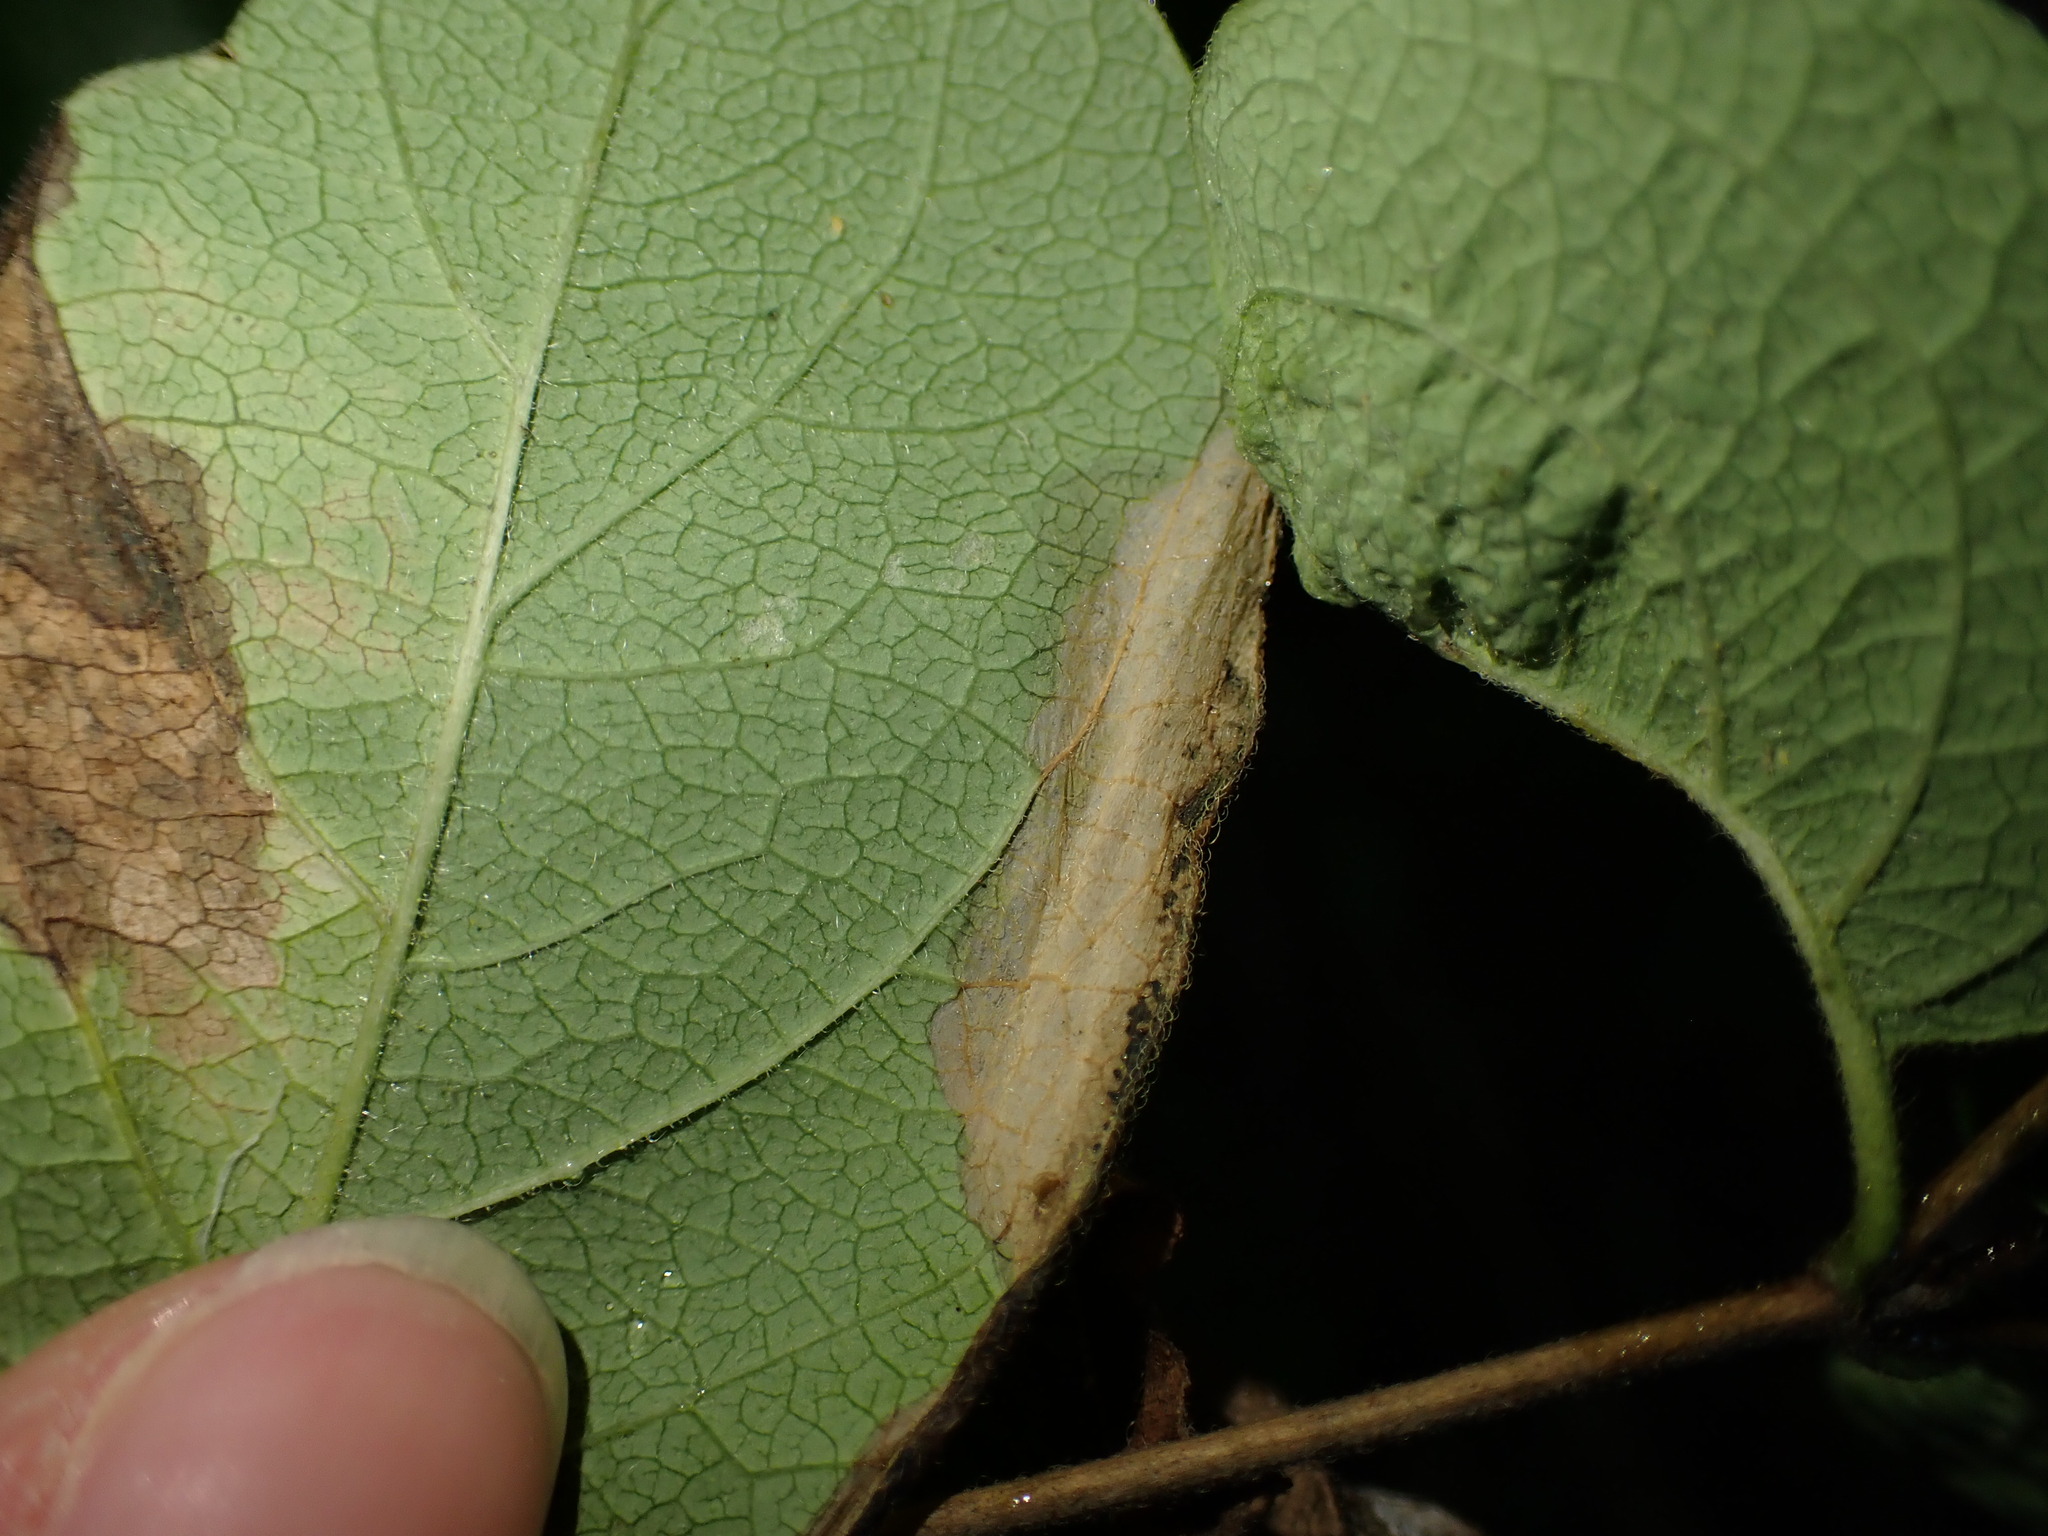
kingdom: Animalia
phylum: Arthropoda
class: Insecta
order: Lepidoptera
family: Elachistidae
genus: Perittia
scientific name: Perittia herrichiella
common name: Moth
